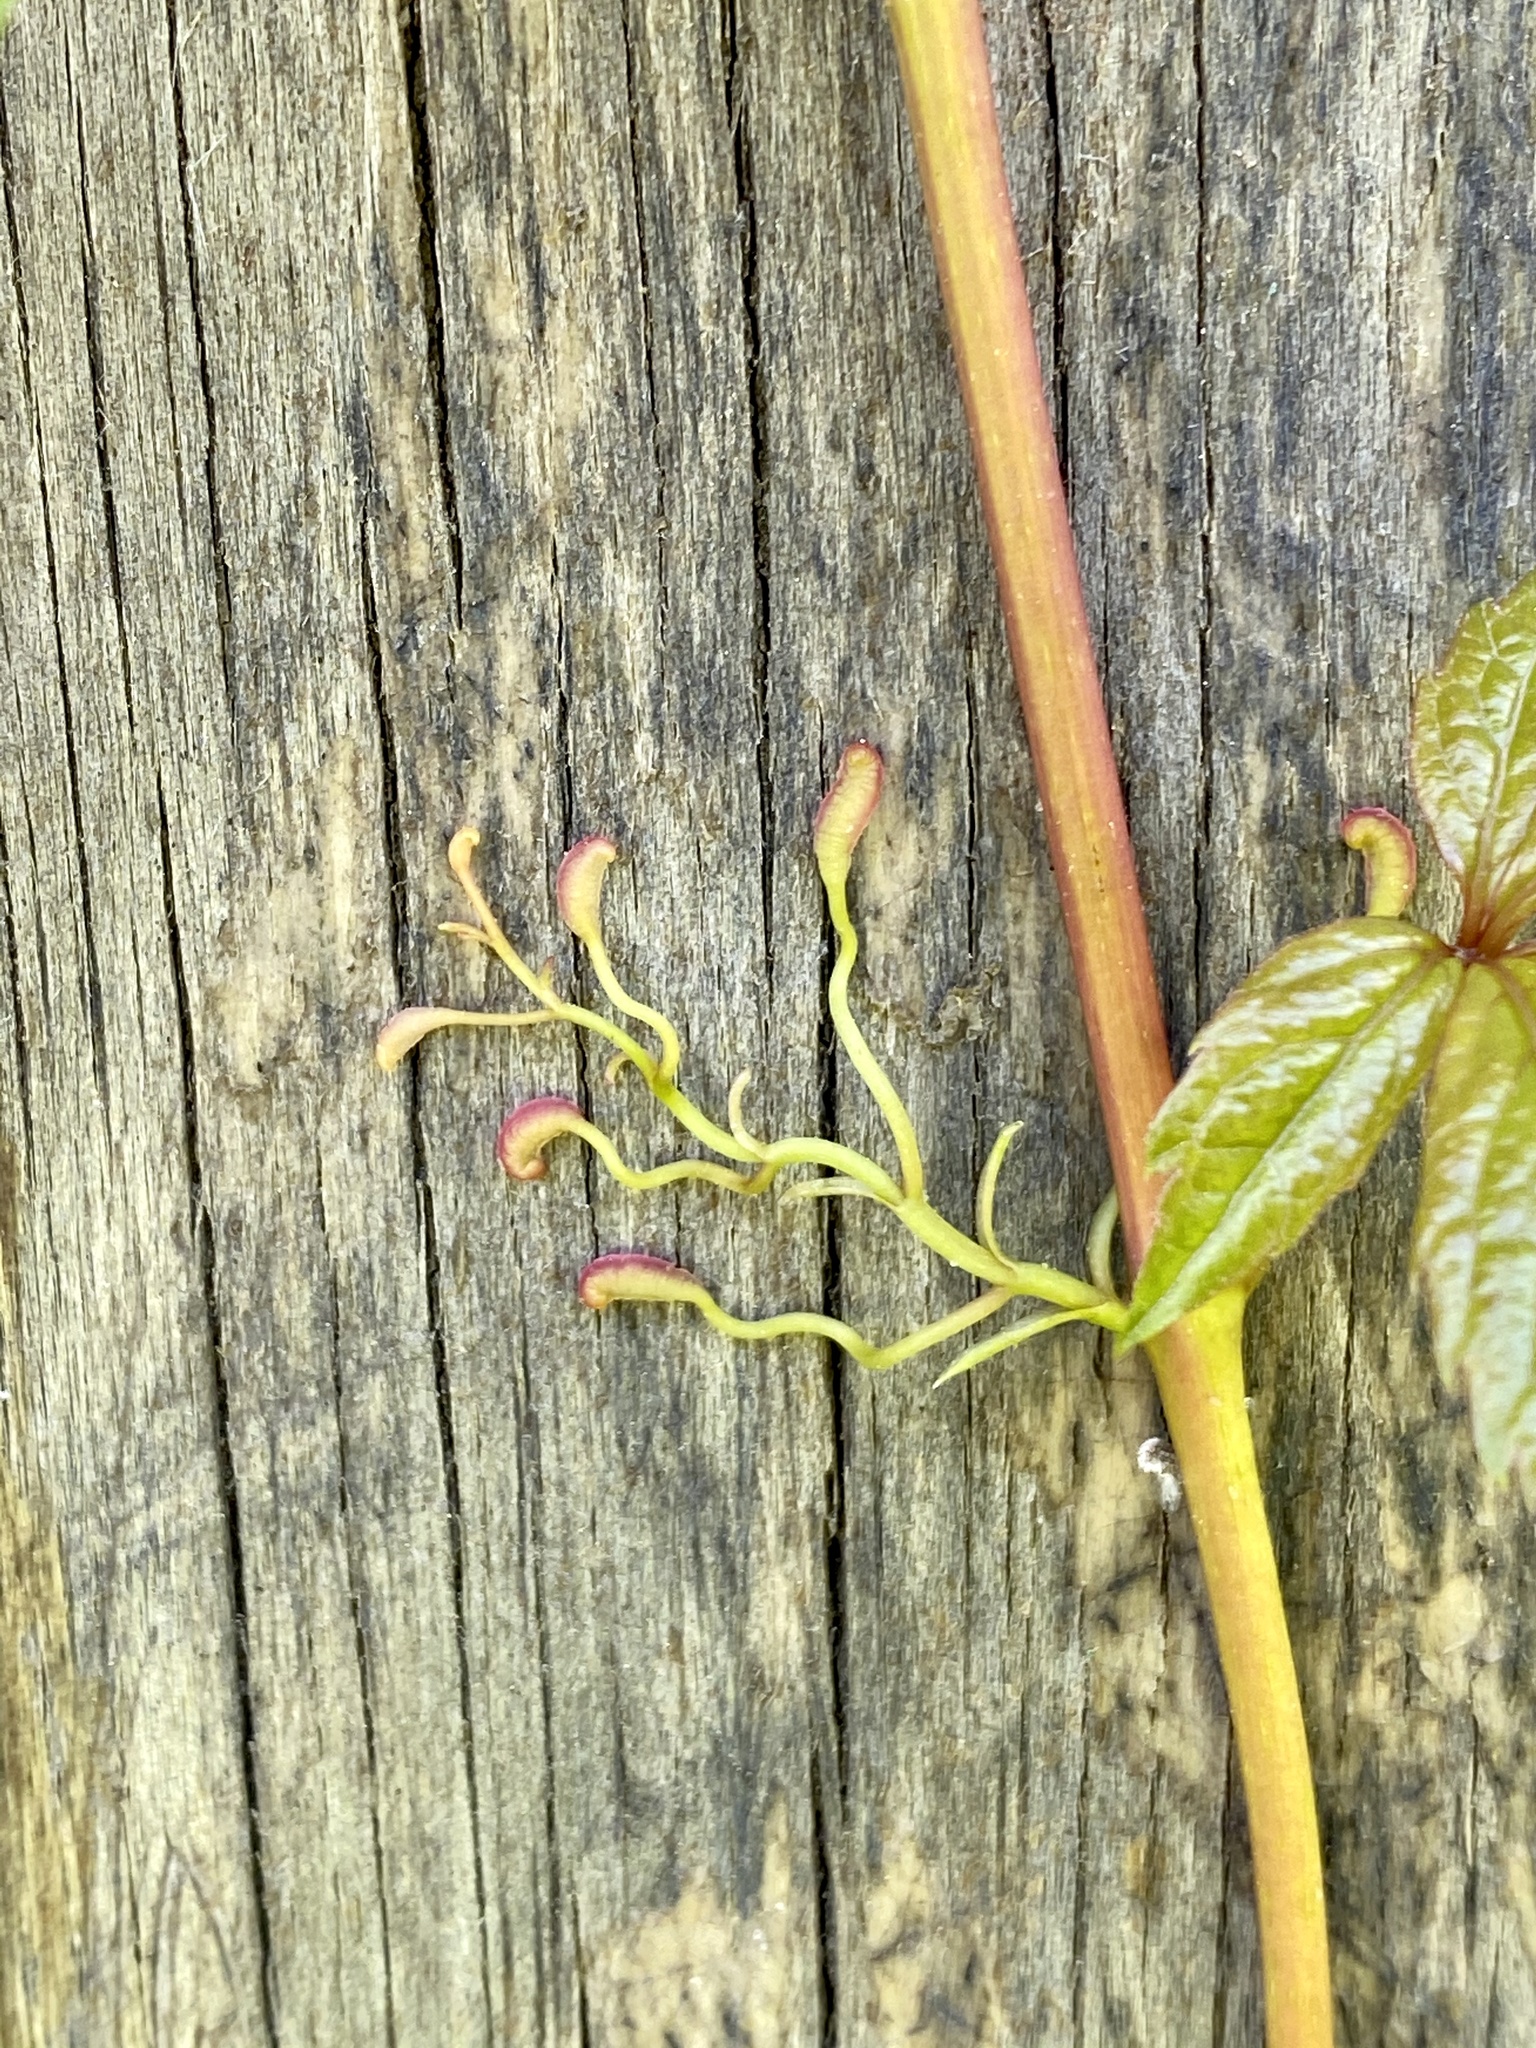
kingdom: Plantae
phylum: Tracheophyta
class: Magnoliopsida
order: Vitales
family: Vitaceae
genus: Parthenocissus
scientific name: Parthenocissus quinquefolia
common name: Virginia-creeper
